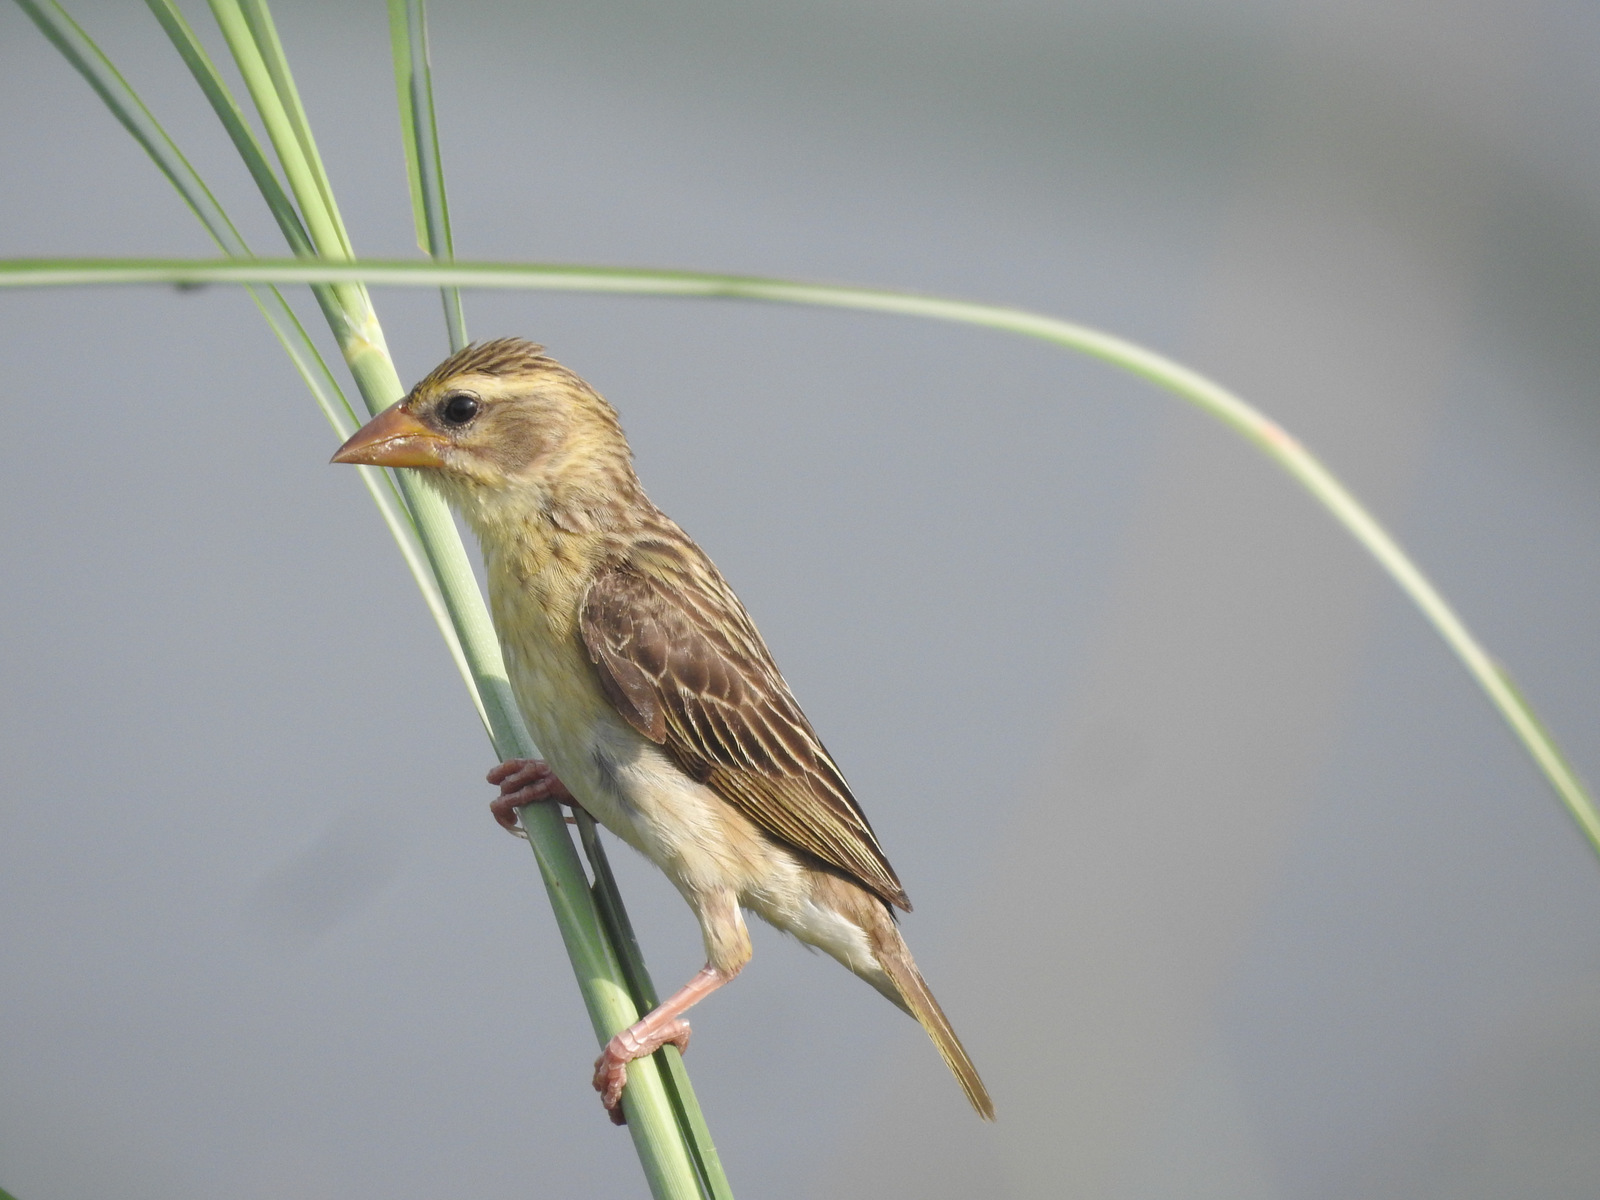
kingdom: Animalia
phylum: Chordata
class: Aves
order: Passeriformes
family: Ploceidae
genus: Ploceus
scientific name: Ploceus philippinus
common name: Baya weaver
